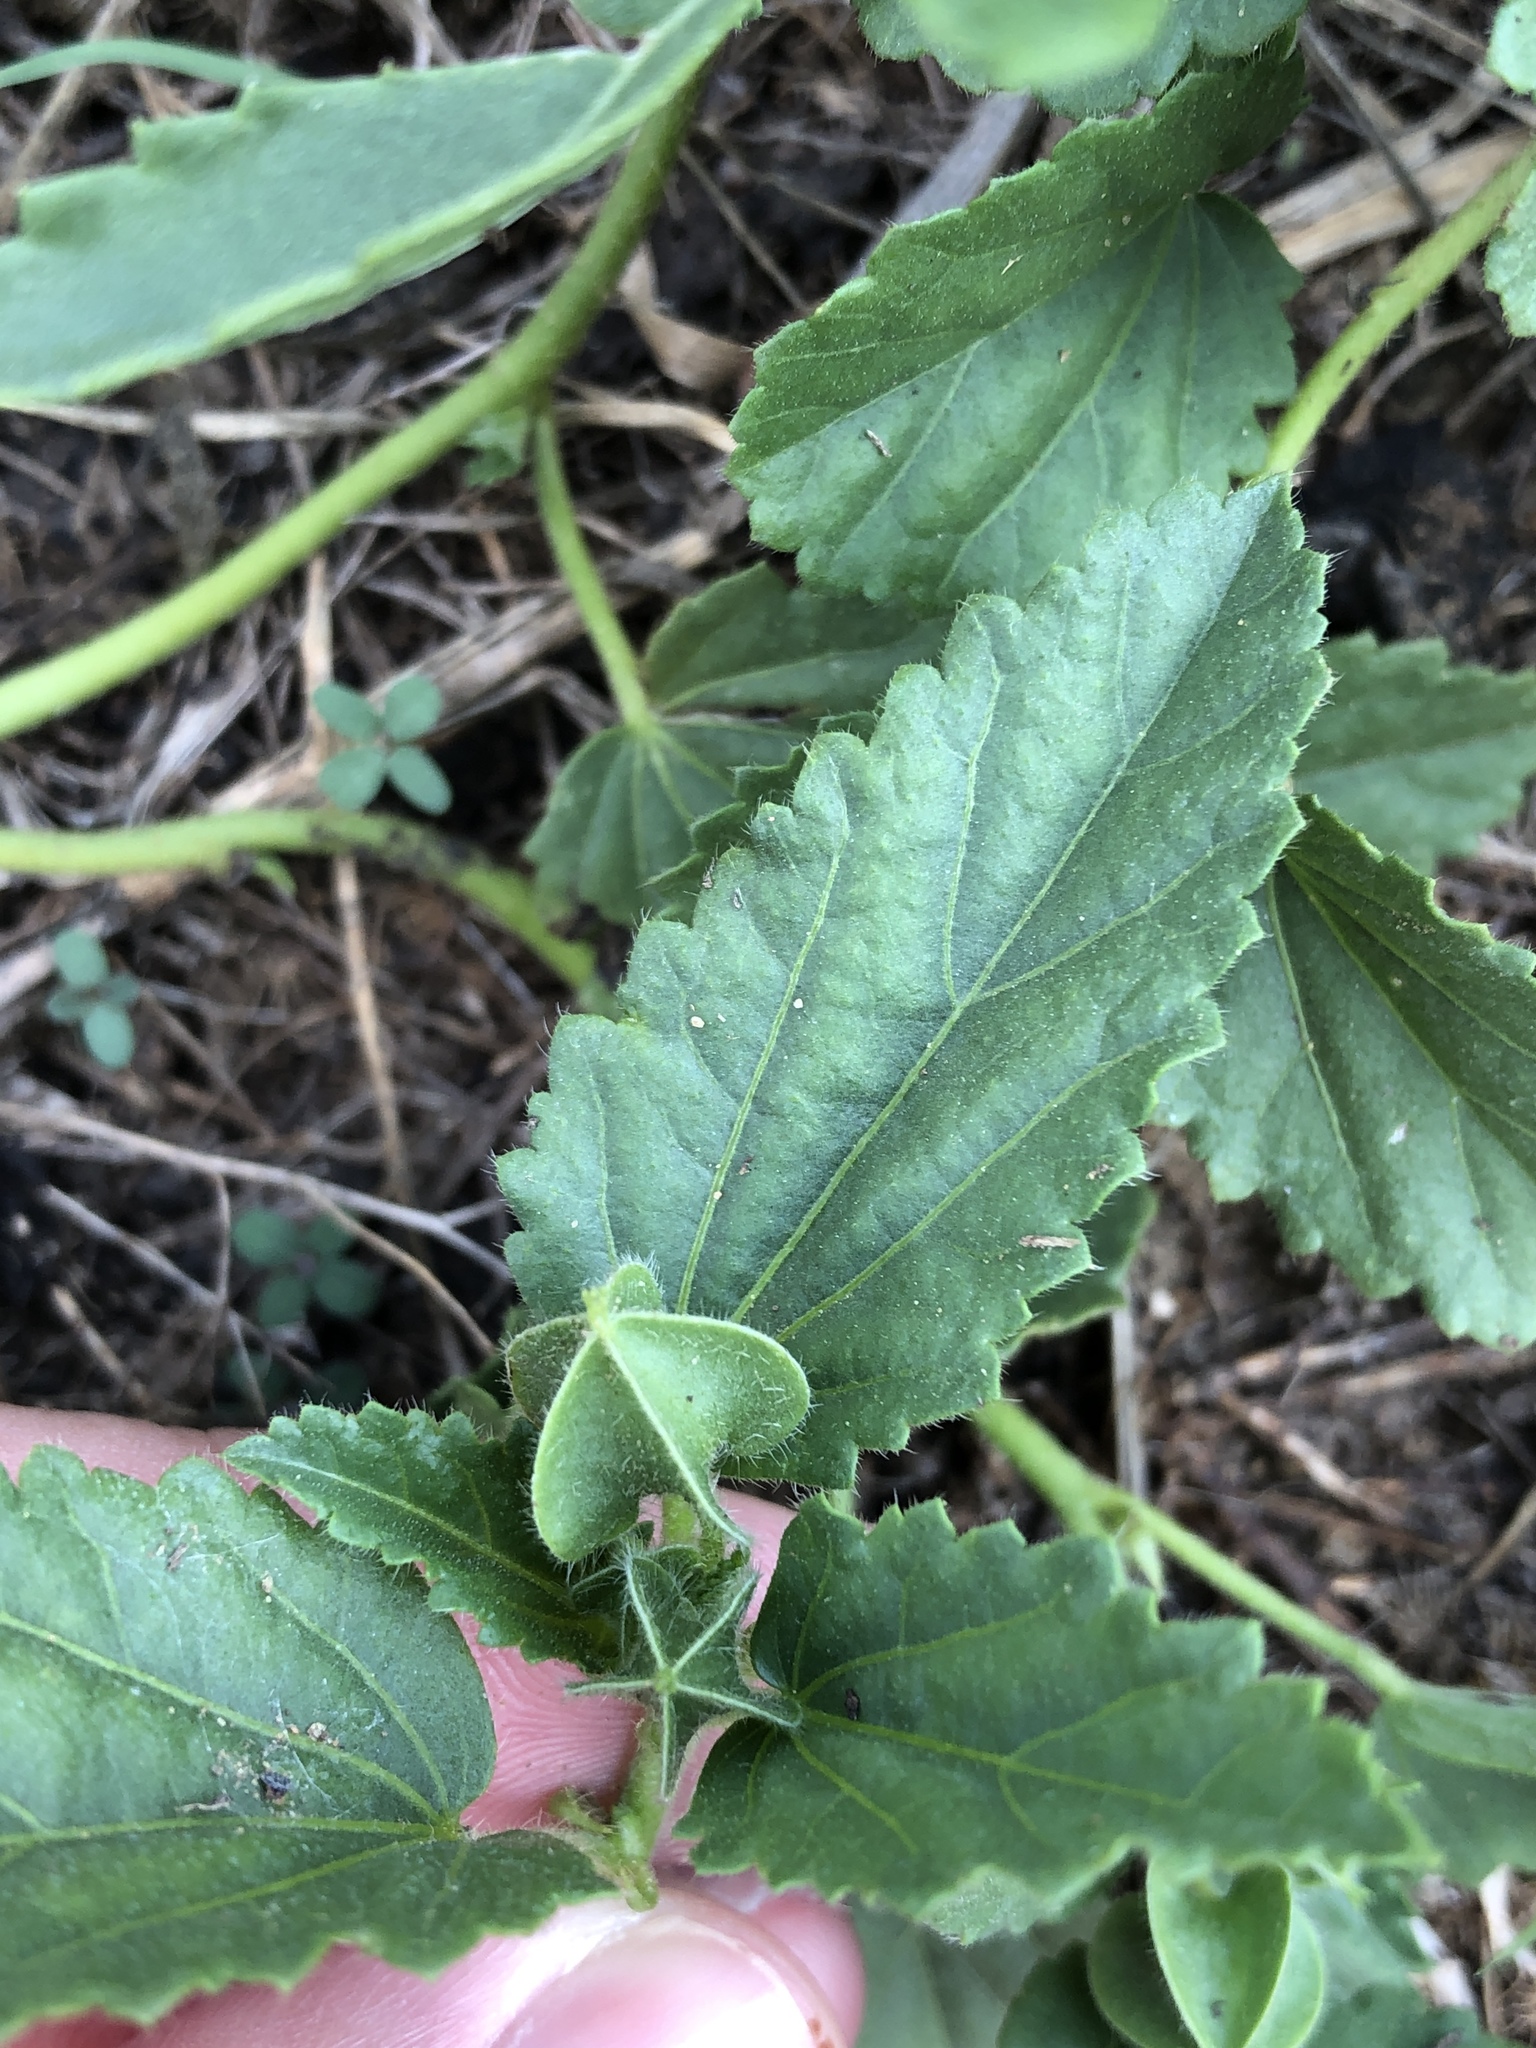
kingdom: Plantae
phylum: Tracheophyta
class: Magnoliopsida
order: Malvales
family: Malvaceae
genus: Rhynchosida
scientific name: Rhynchosida physocalyx
